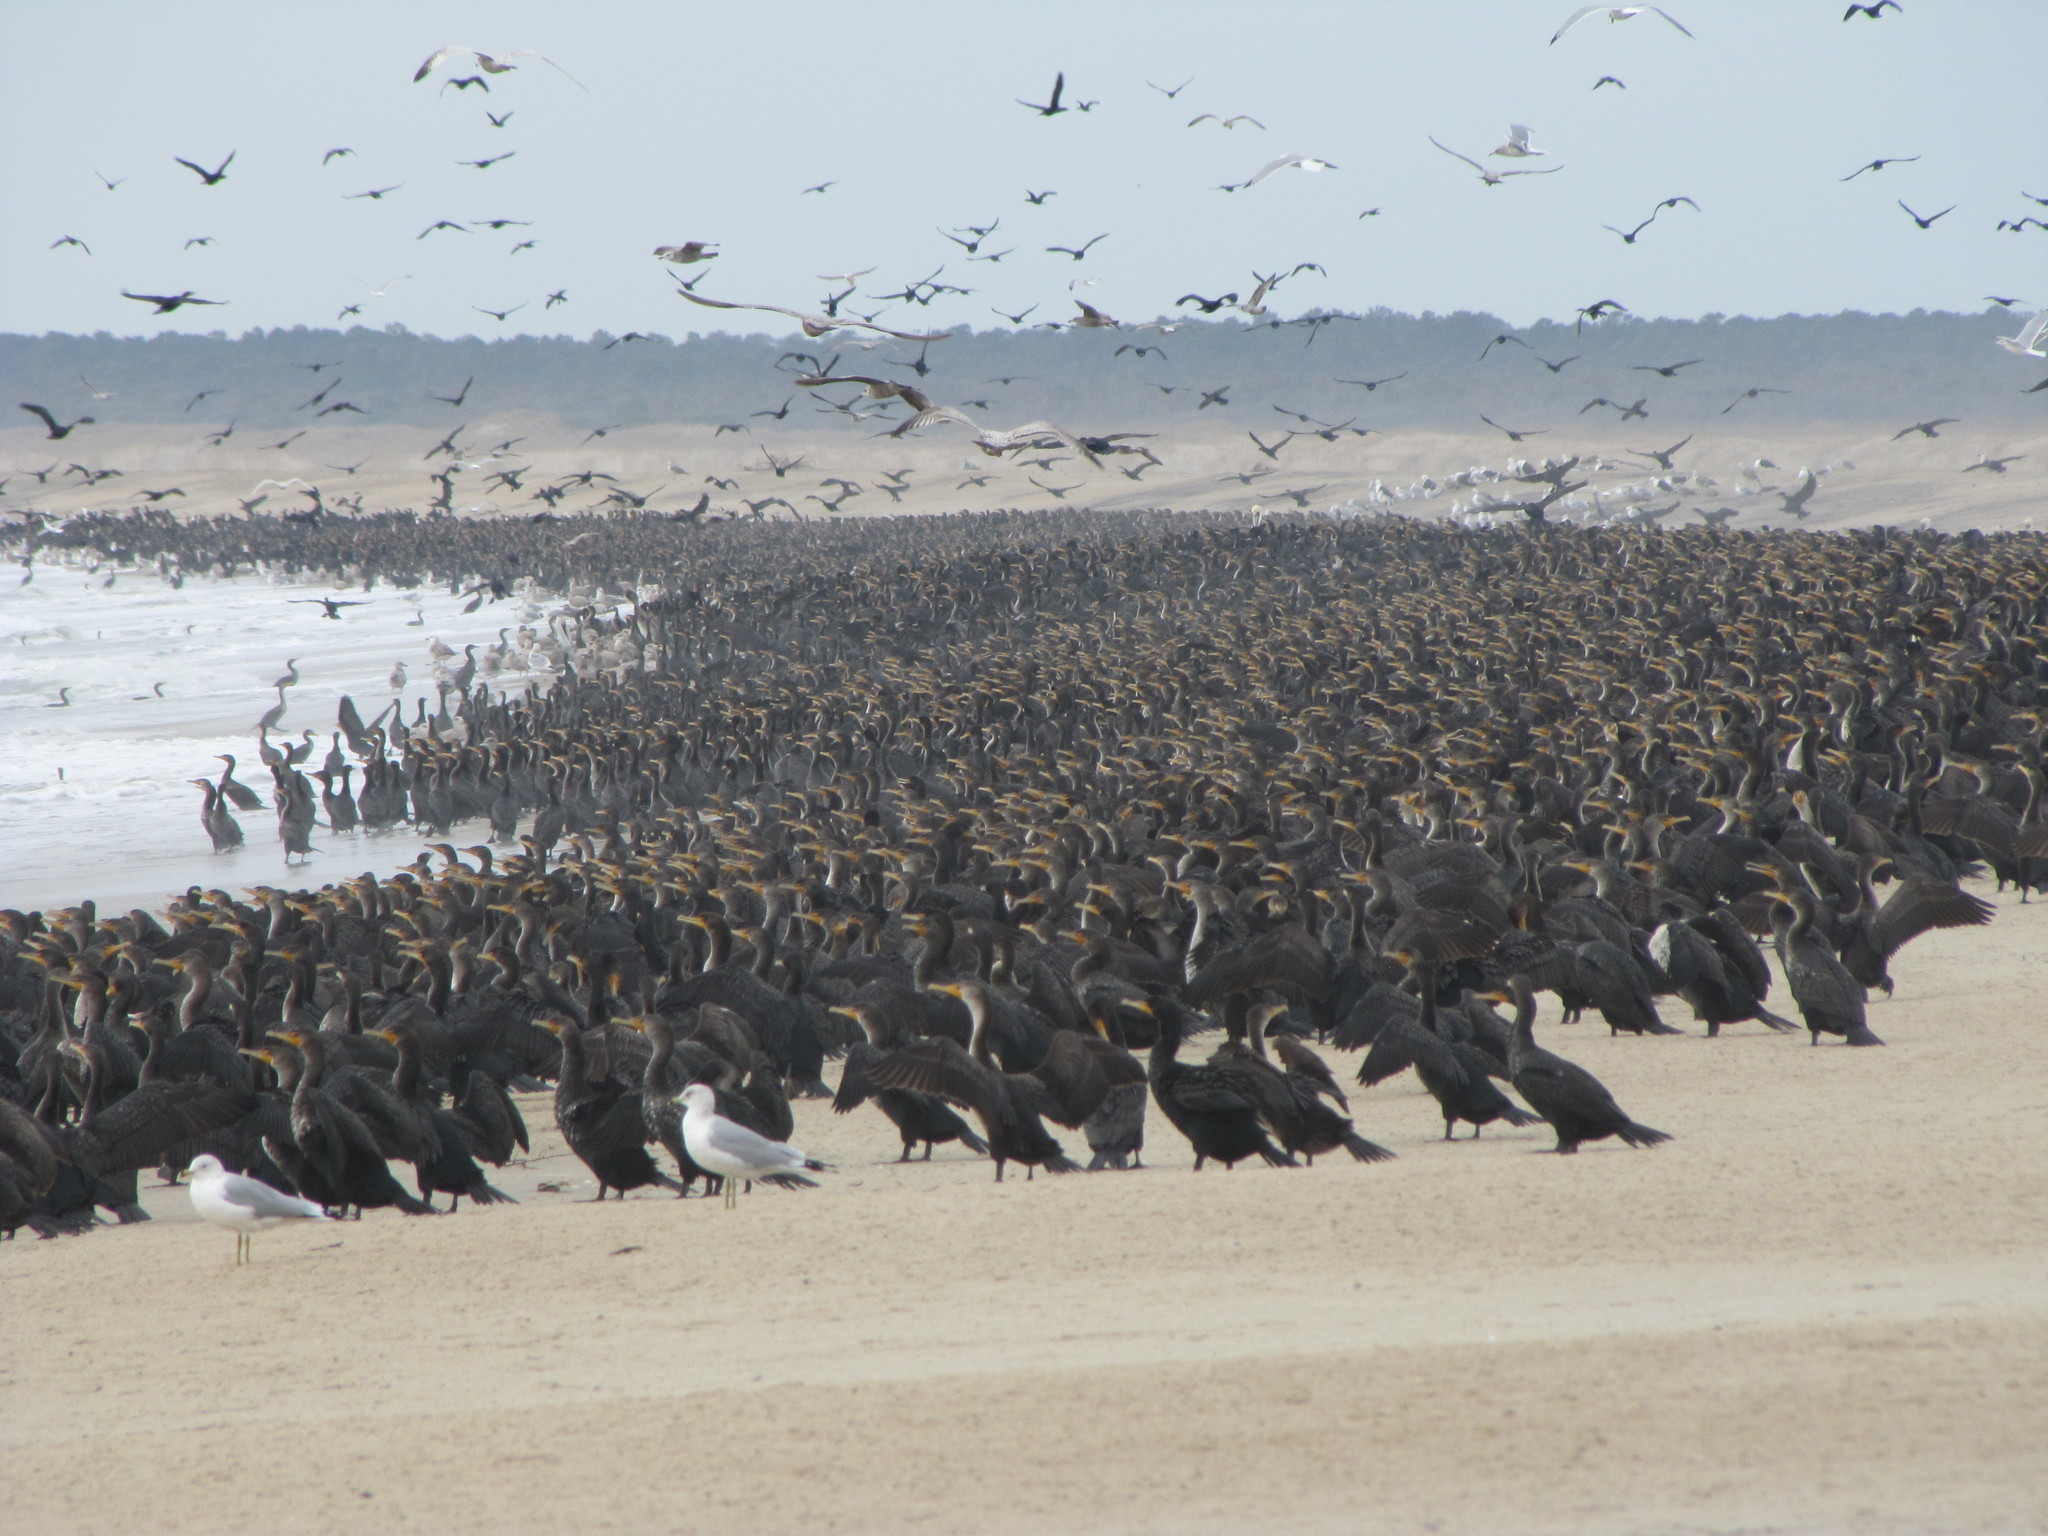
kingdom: Animalia
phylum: Chordata
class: Aves
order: Suliformes
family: Phalacrocoracidae
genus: Phalacrocorax
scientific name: Phalacrocorax auritus
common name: Double-crested cormorant
